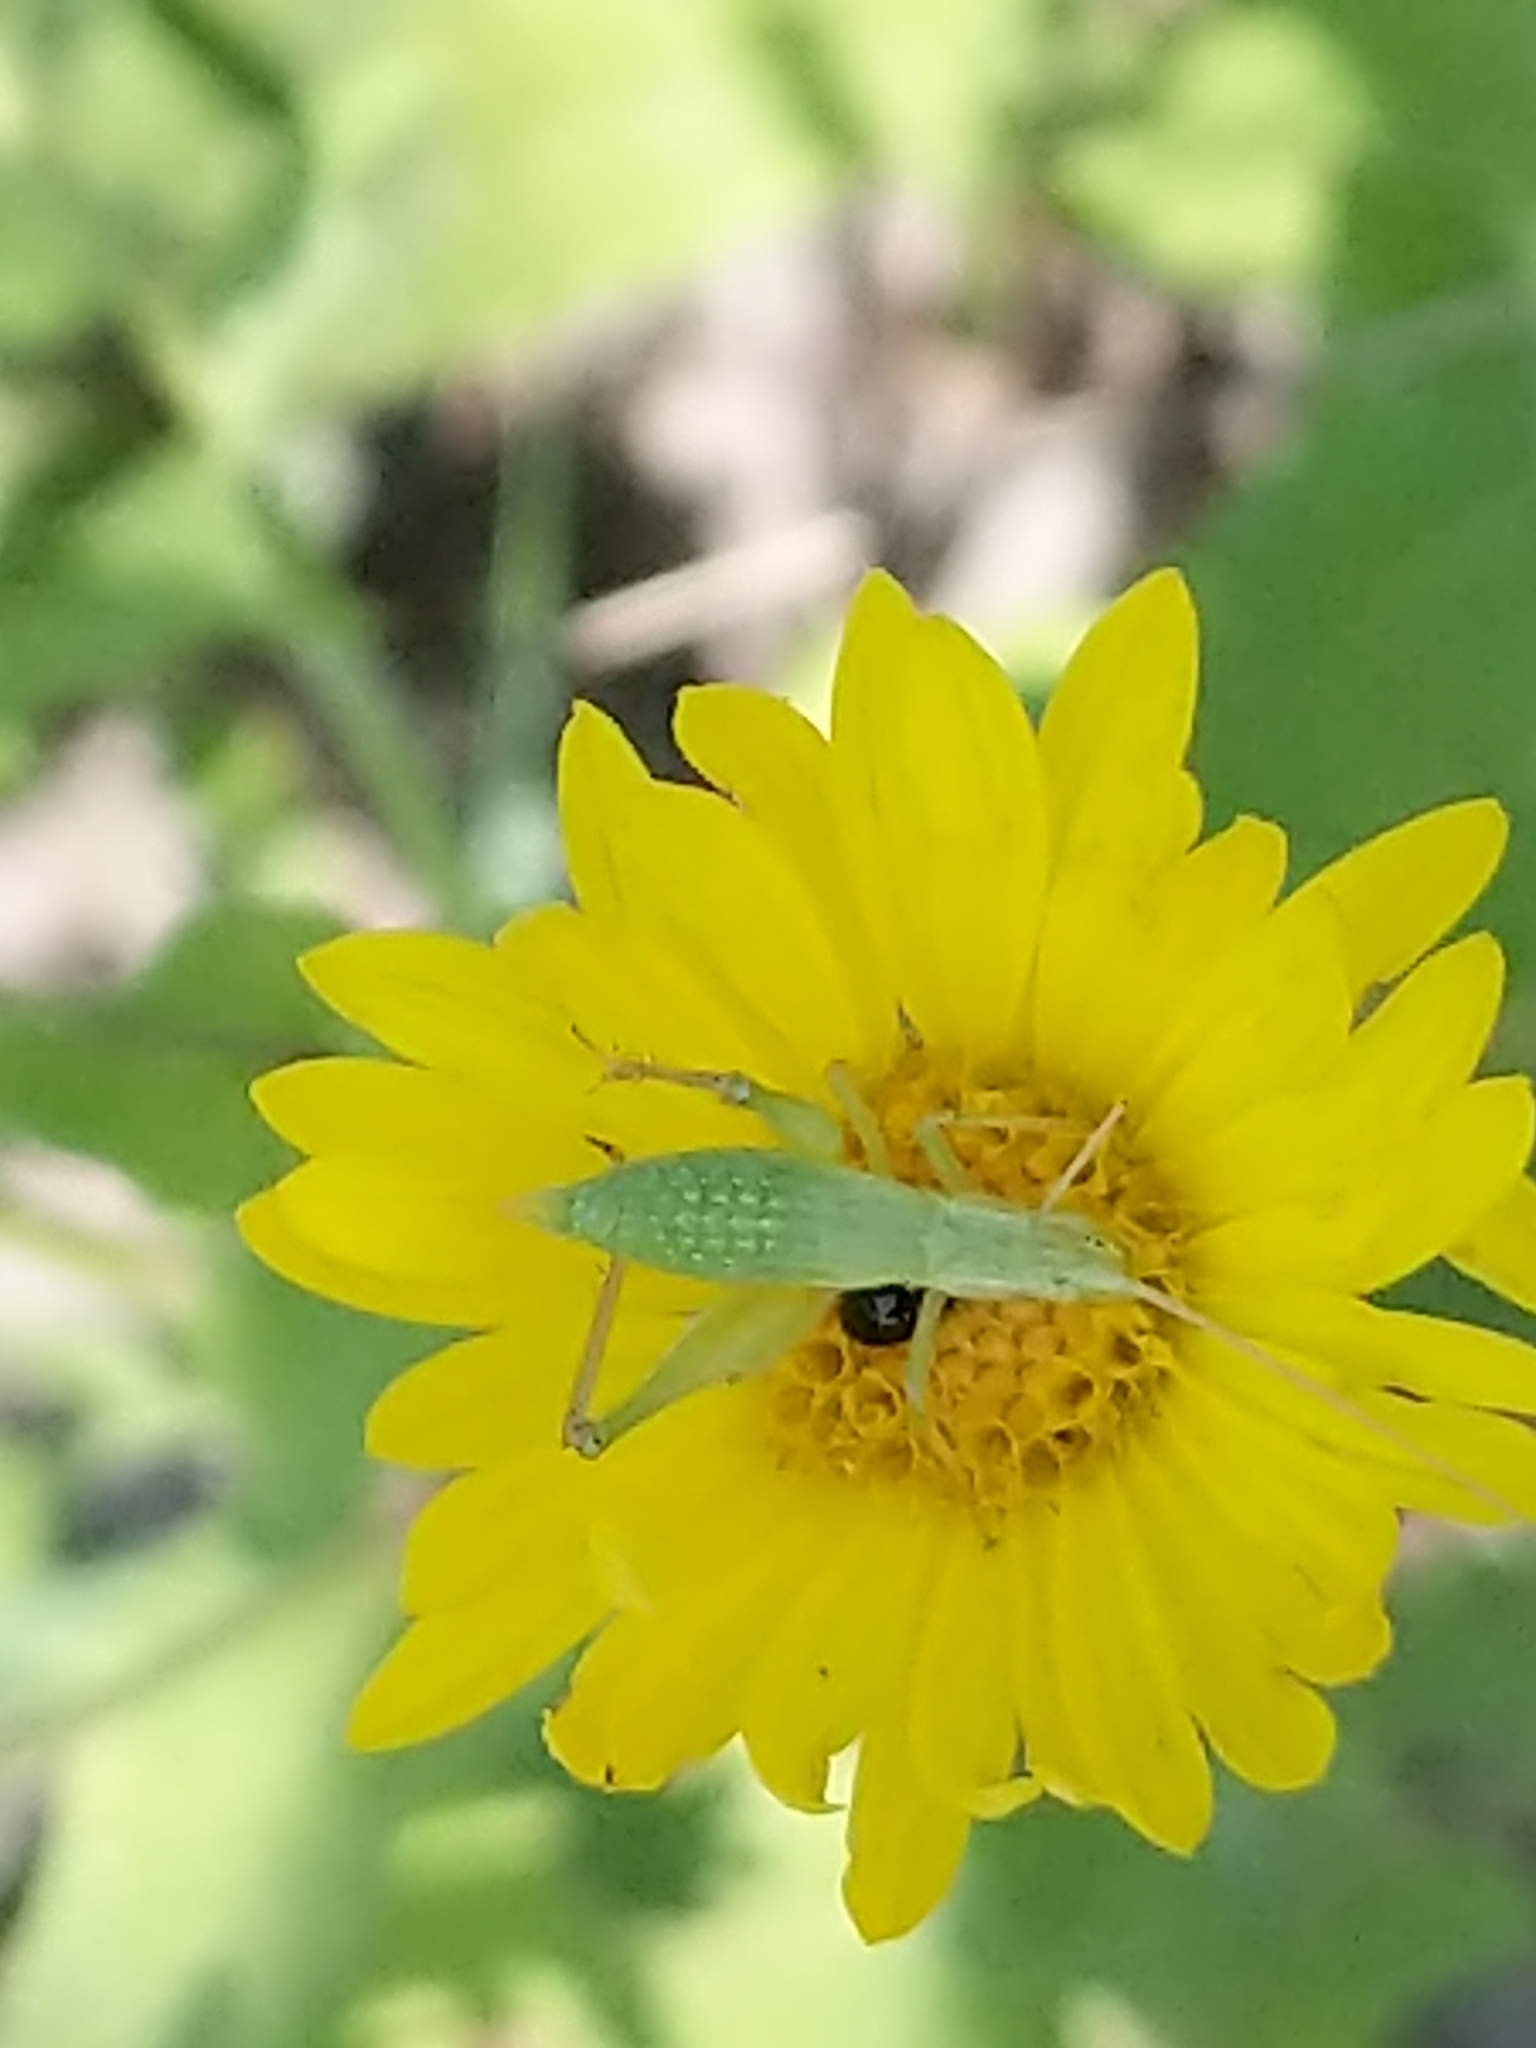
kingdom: Animalia
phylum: Arthropoda
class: Insecta
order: Orthoptera
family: Gryllidae
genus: Oecanthus
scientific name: Oecanthus
